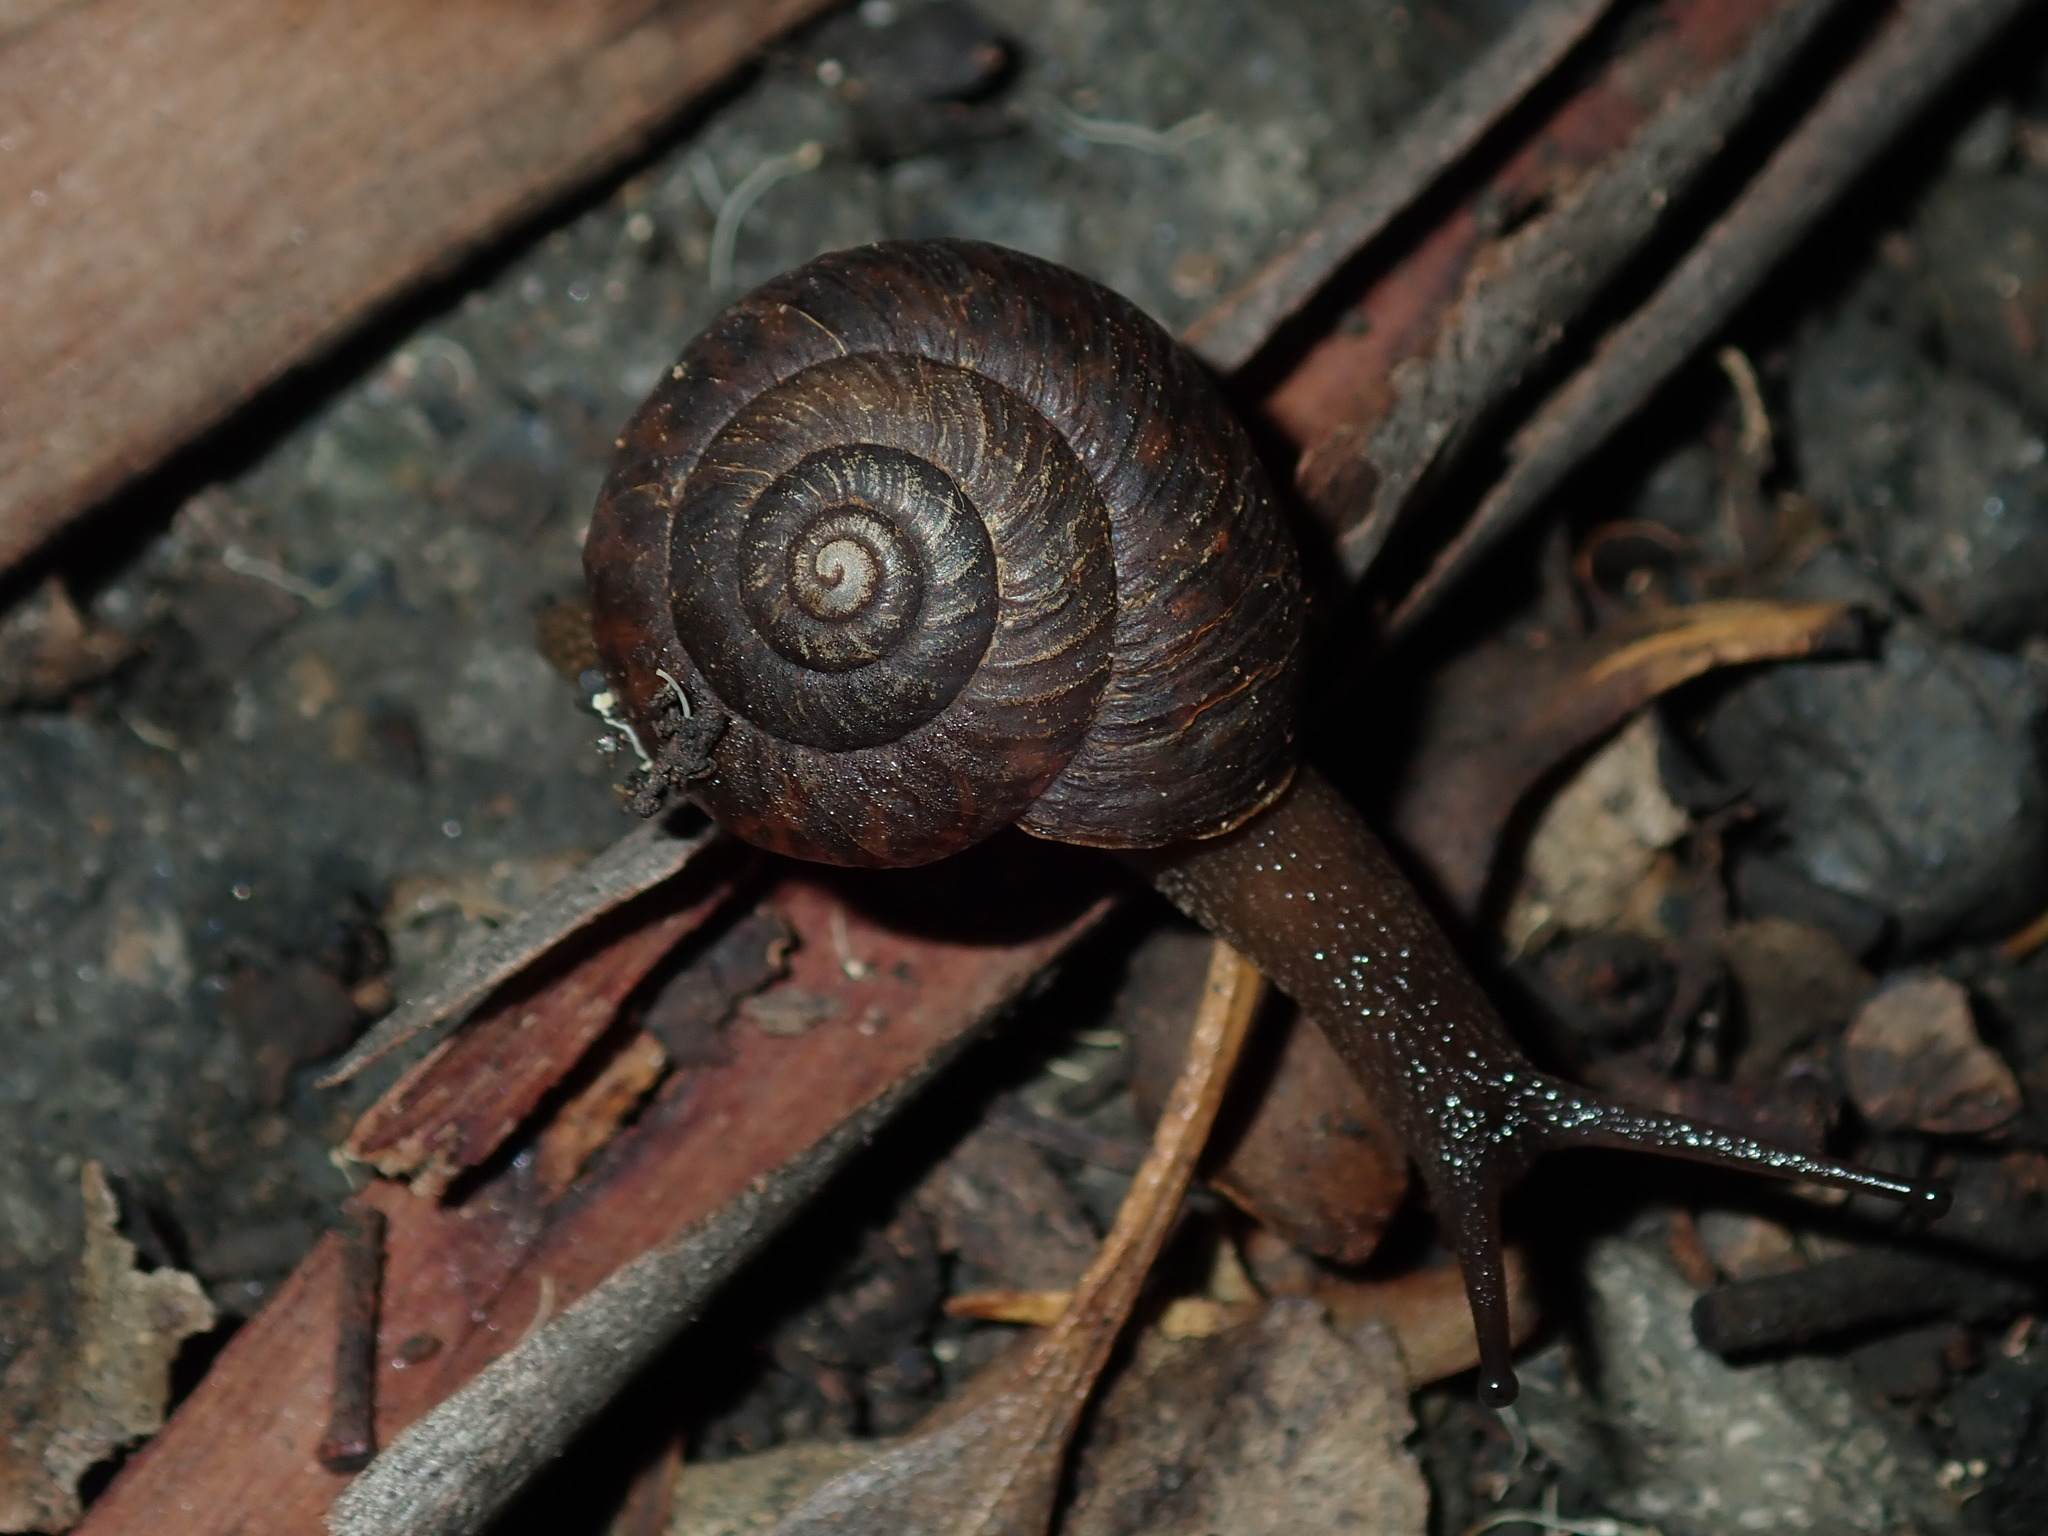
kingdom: Animalia
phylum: Mollusca
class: Gastropoda
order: Stylommatophora
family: Camaenidae
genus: Sauroconcha
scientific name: Sauroconcha sheai
